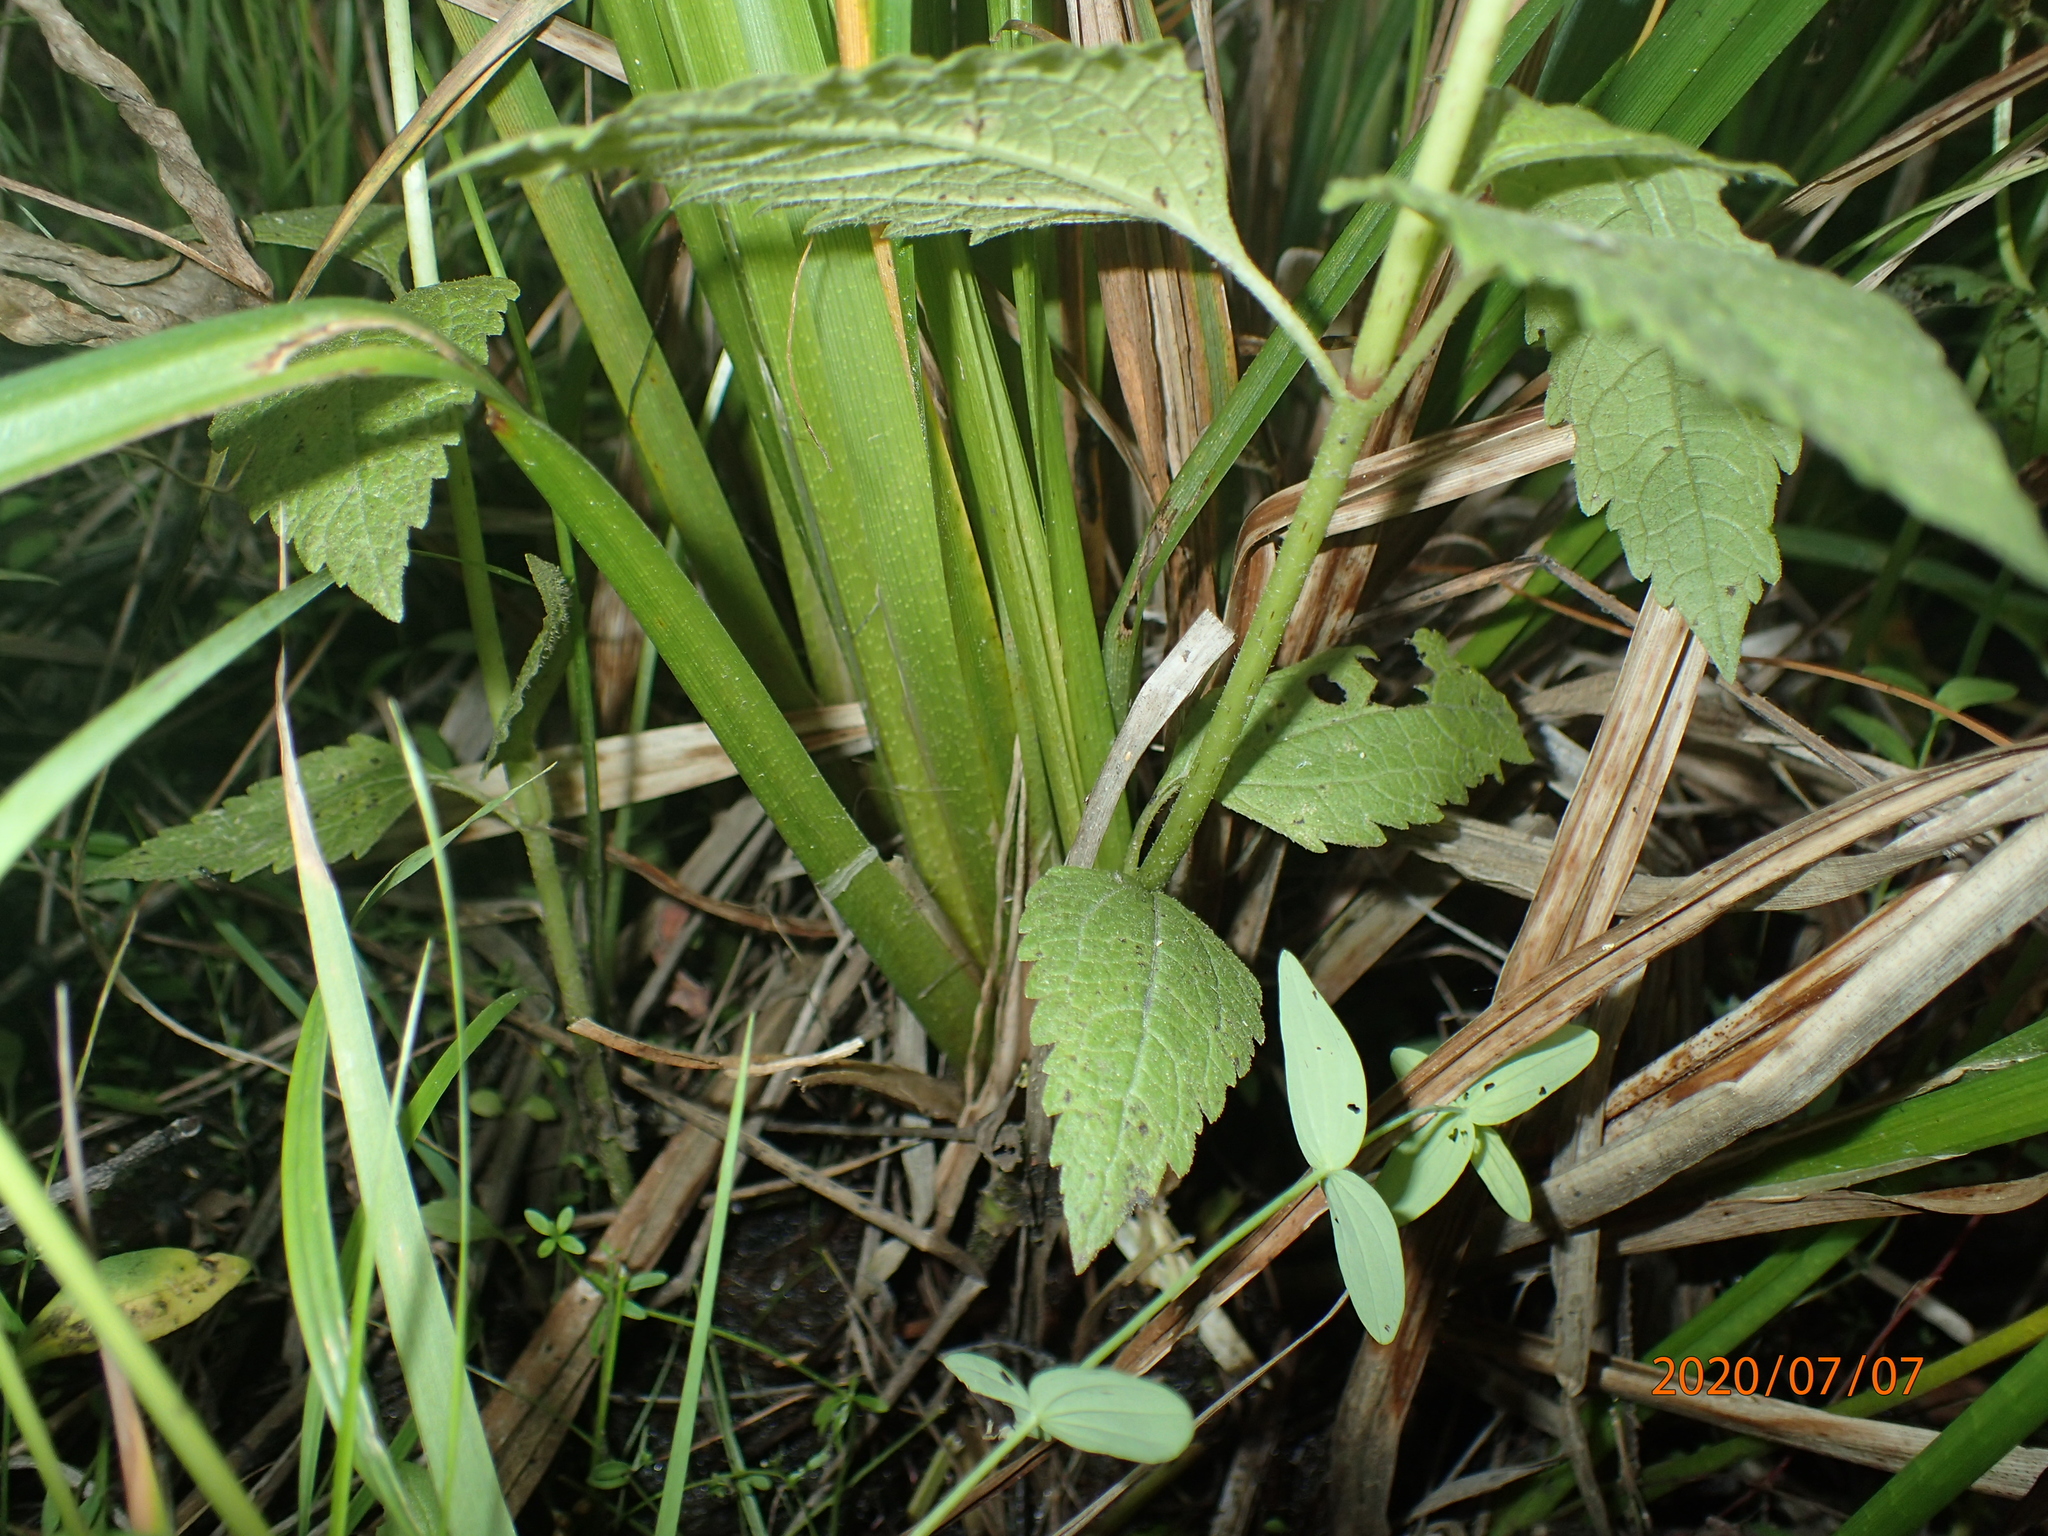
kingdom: Plantae
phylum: Tracheophyta
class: Liliopsida
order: Poales
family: Cyperaceae
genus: Carex
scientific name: Carex comosa
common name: Bristly sedge
